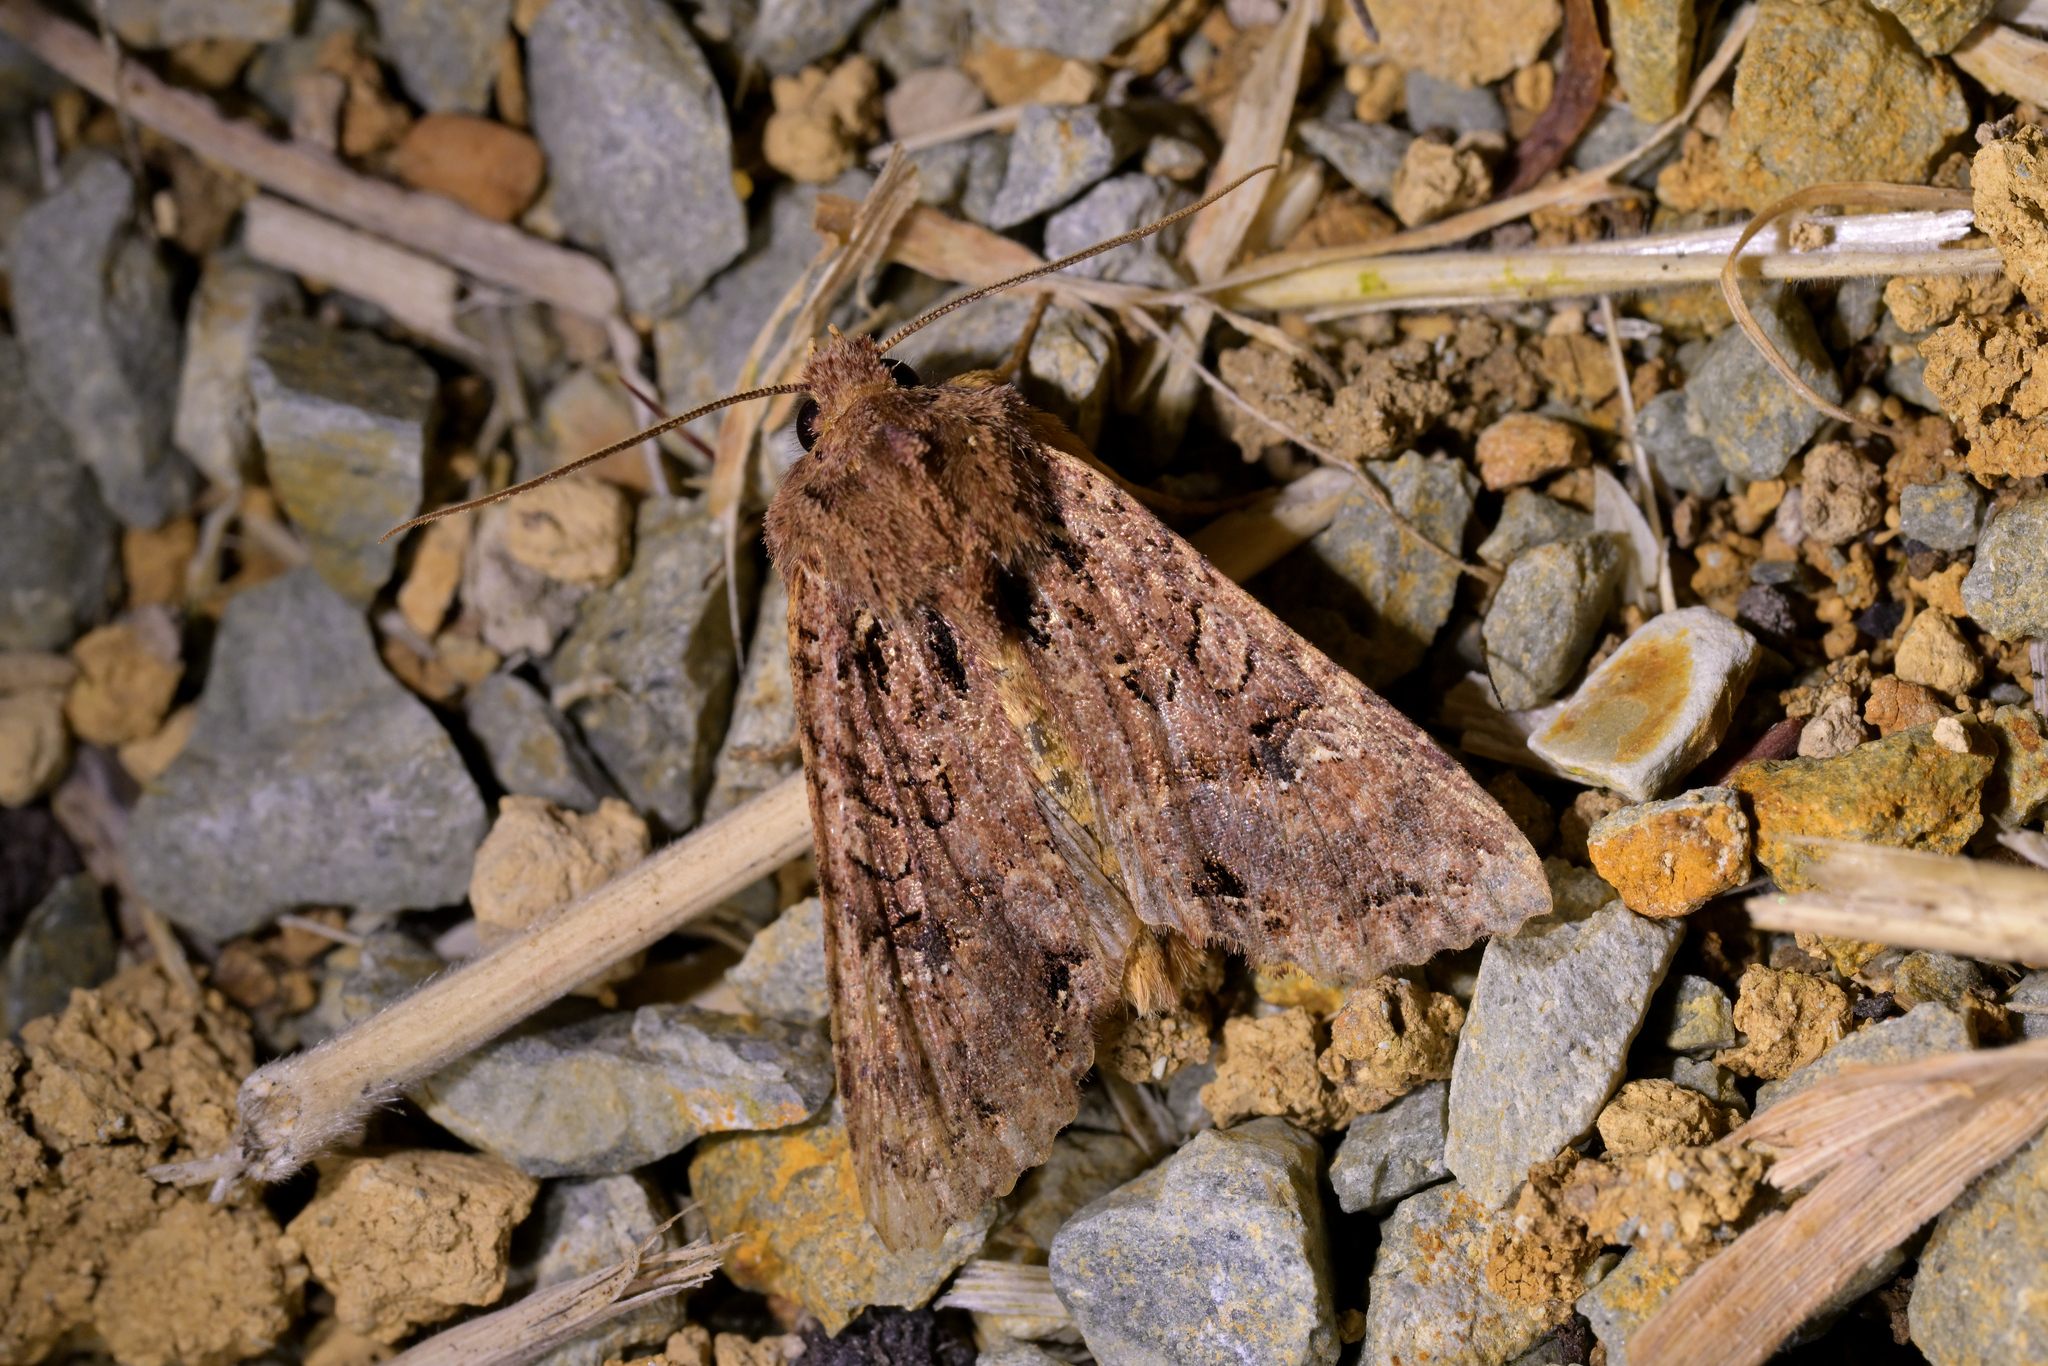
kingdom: Animalia
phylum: Arthropoda
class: Insecta
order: Lepidoptera
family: Noctuidae
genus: Meterana
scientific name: Meterana
